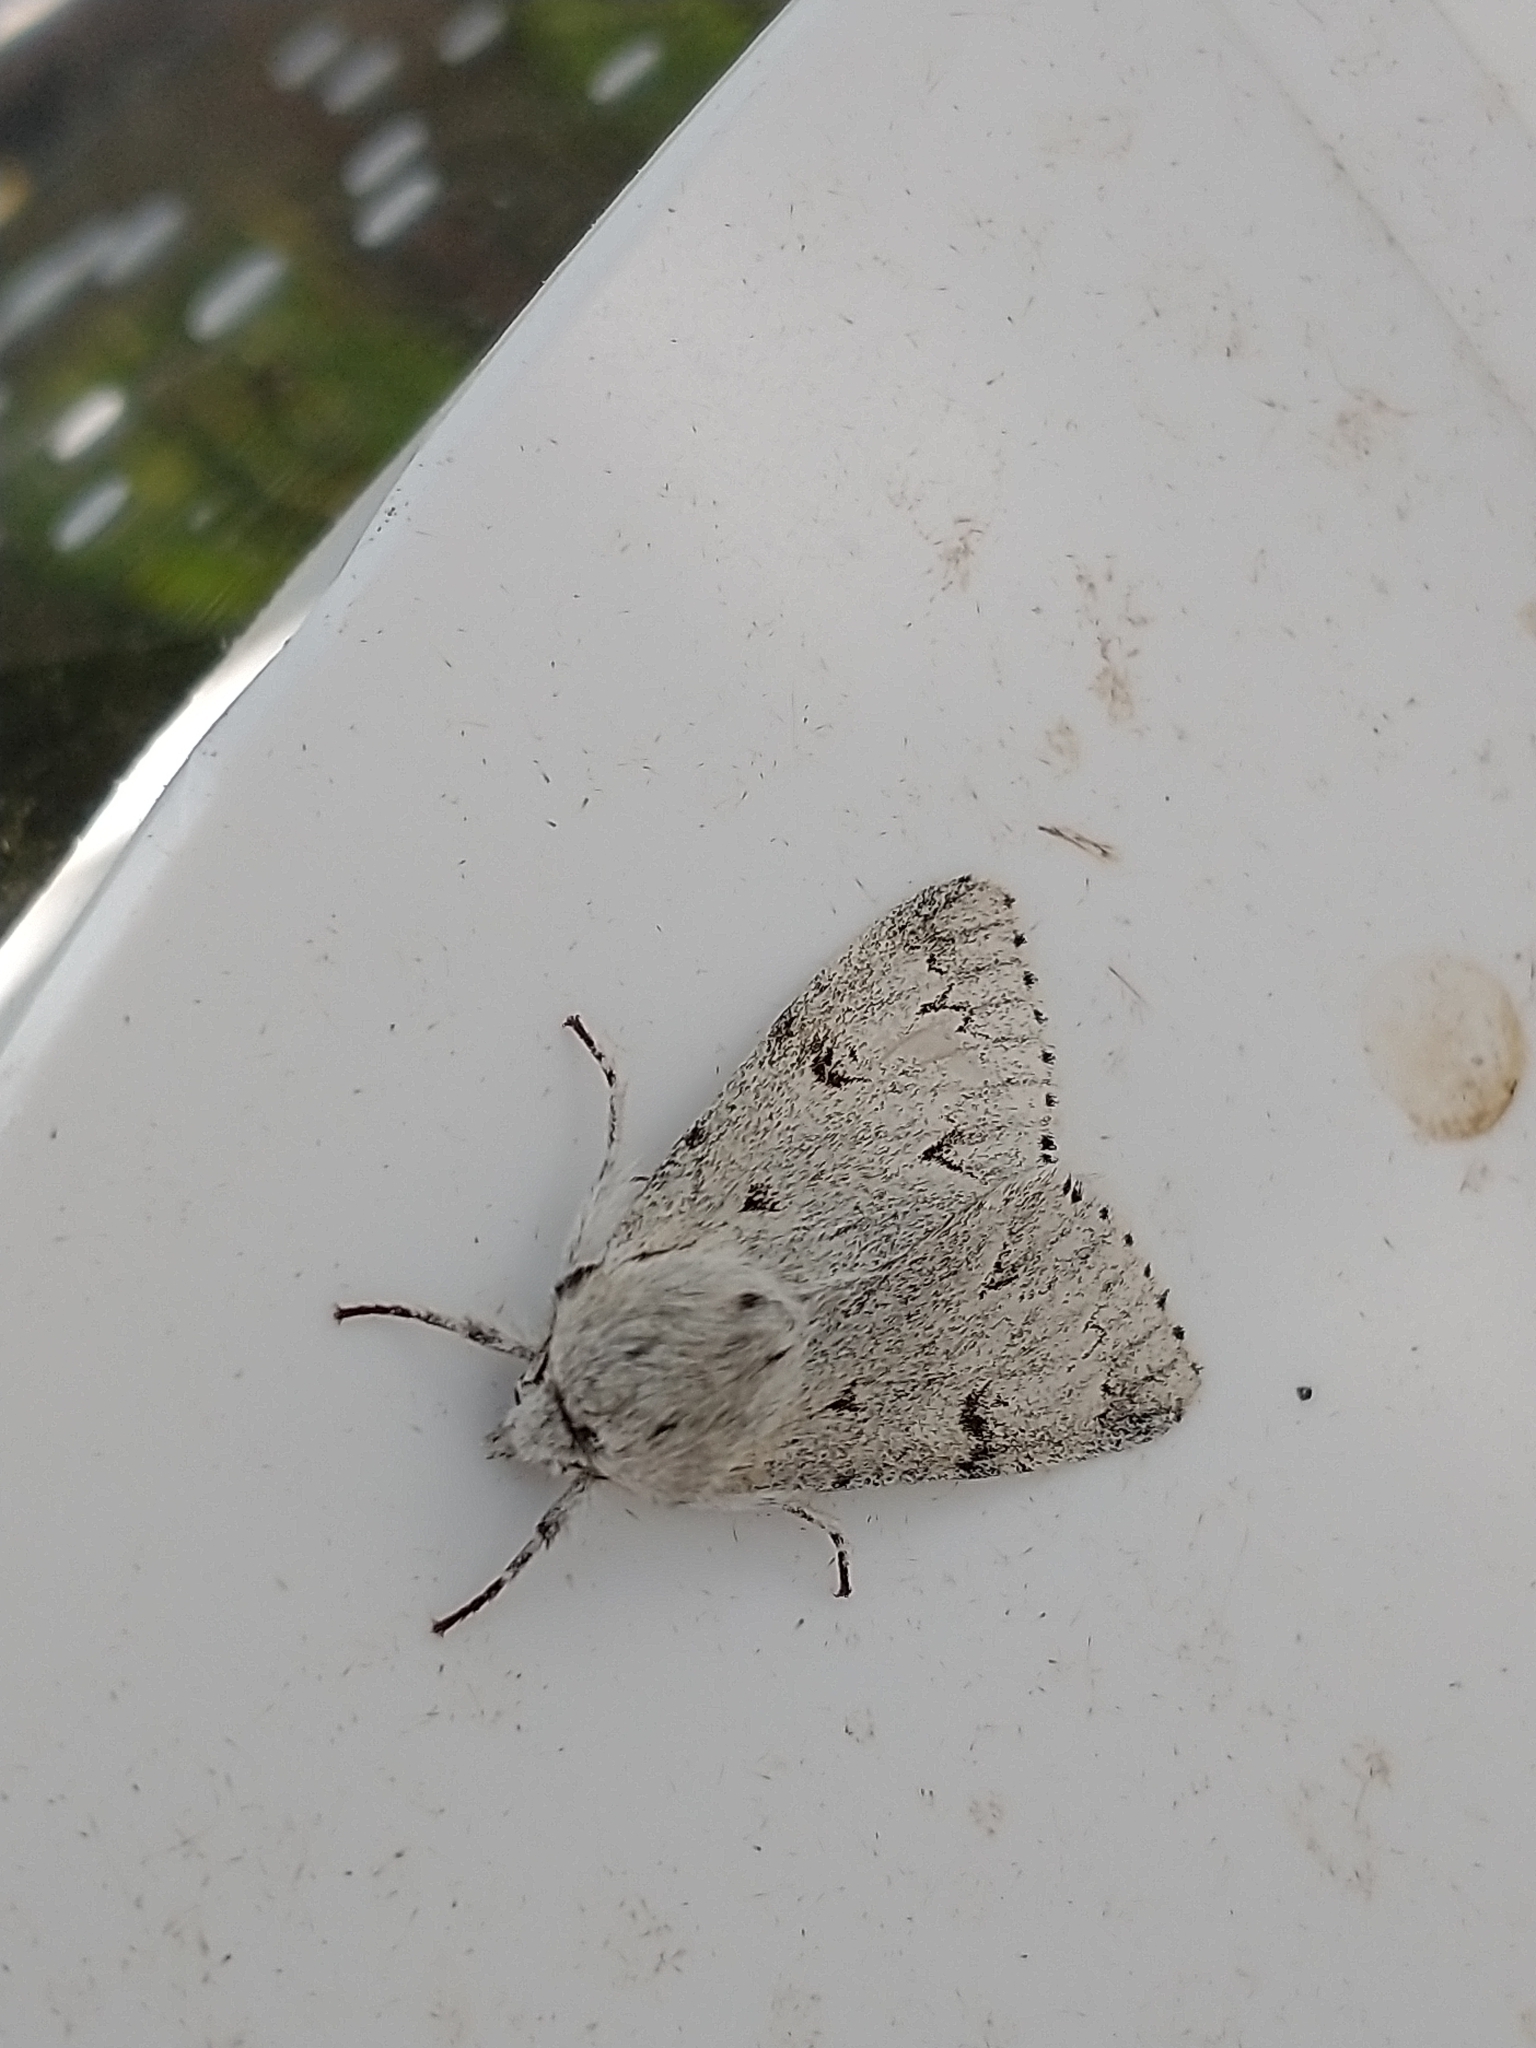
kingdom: Animalia
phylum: Arthropoda
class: Insecta
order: Lepidoptera
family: Noctuidae
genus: Acronicta
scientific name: Acronicta leporina
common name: Miller
